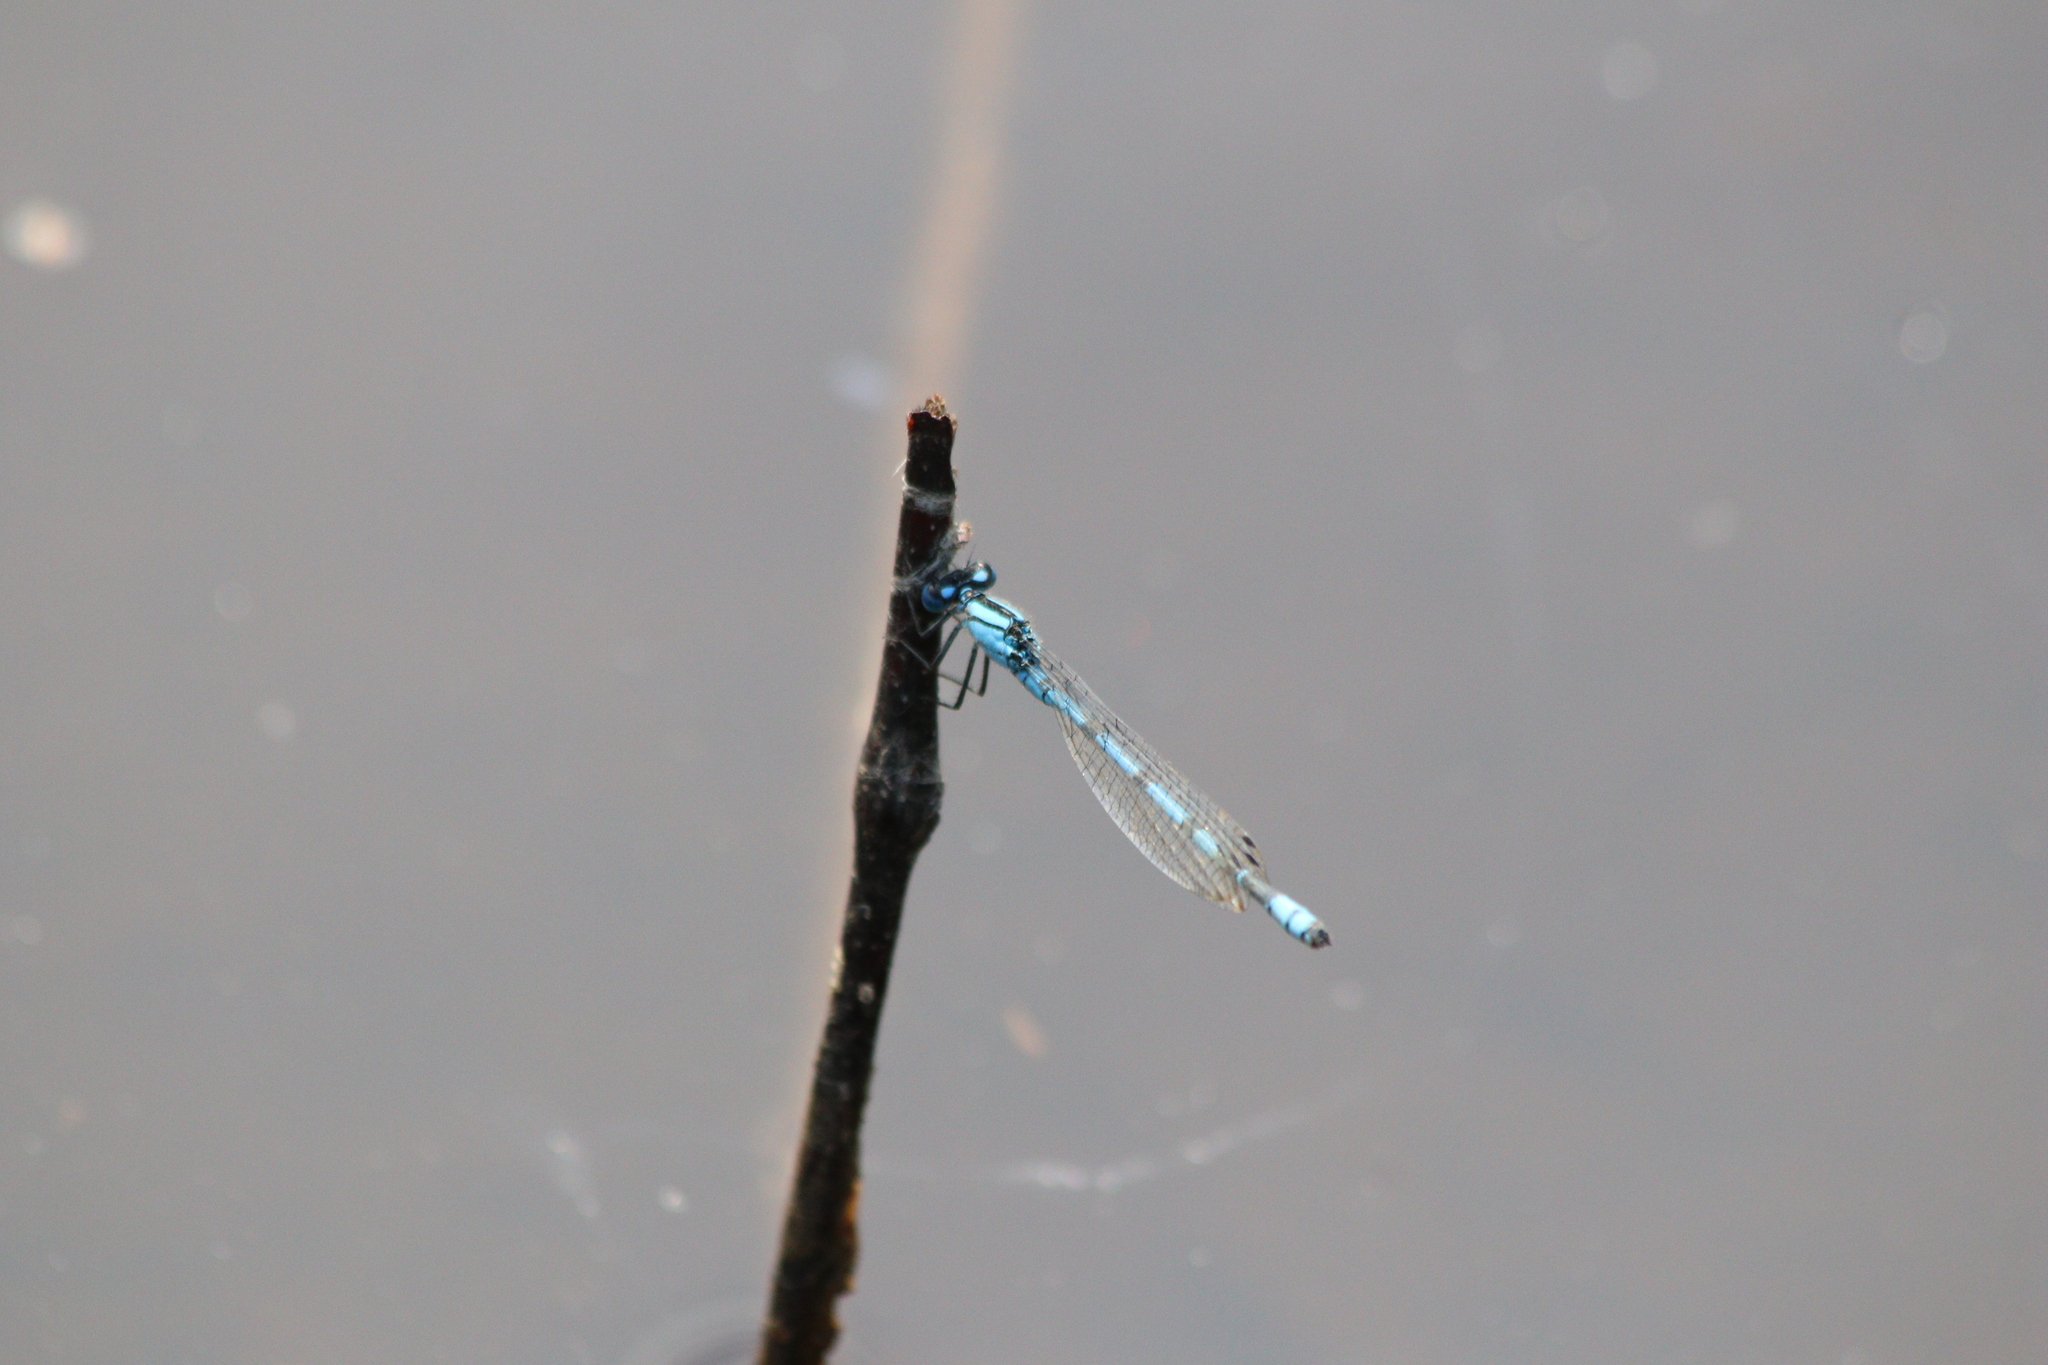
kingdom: Animalia
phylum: Arthropoda
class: Insecta
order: Odonata
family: Coenagrionidae
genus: Enallagma
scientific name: Enallagma cyathigerum
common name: Common blue damselfly
